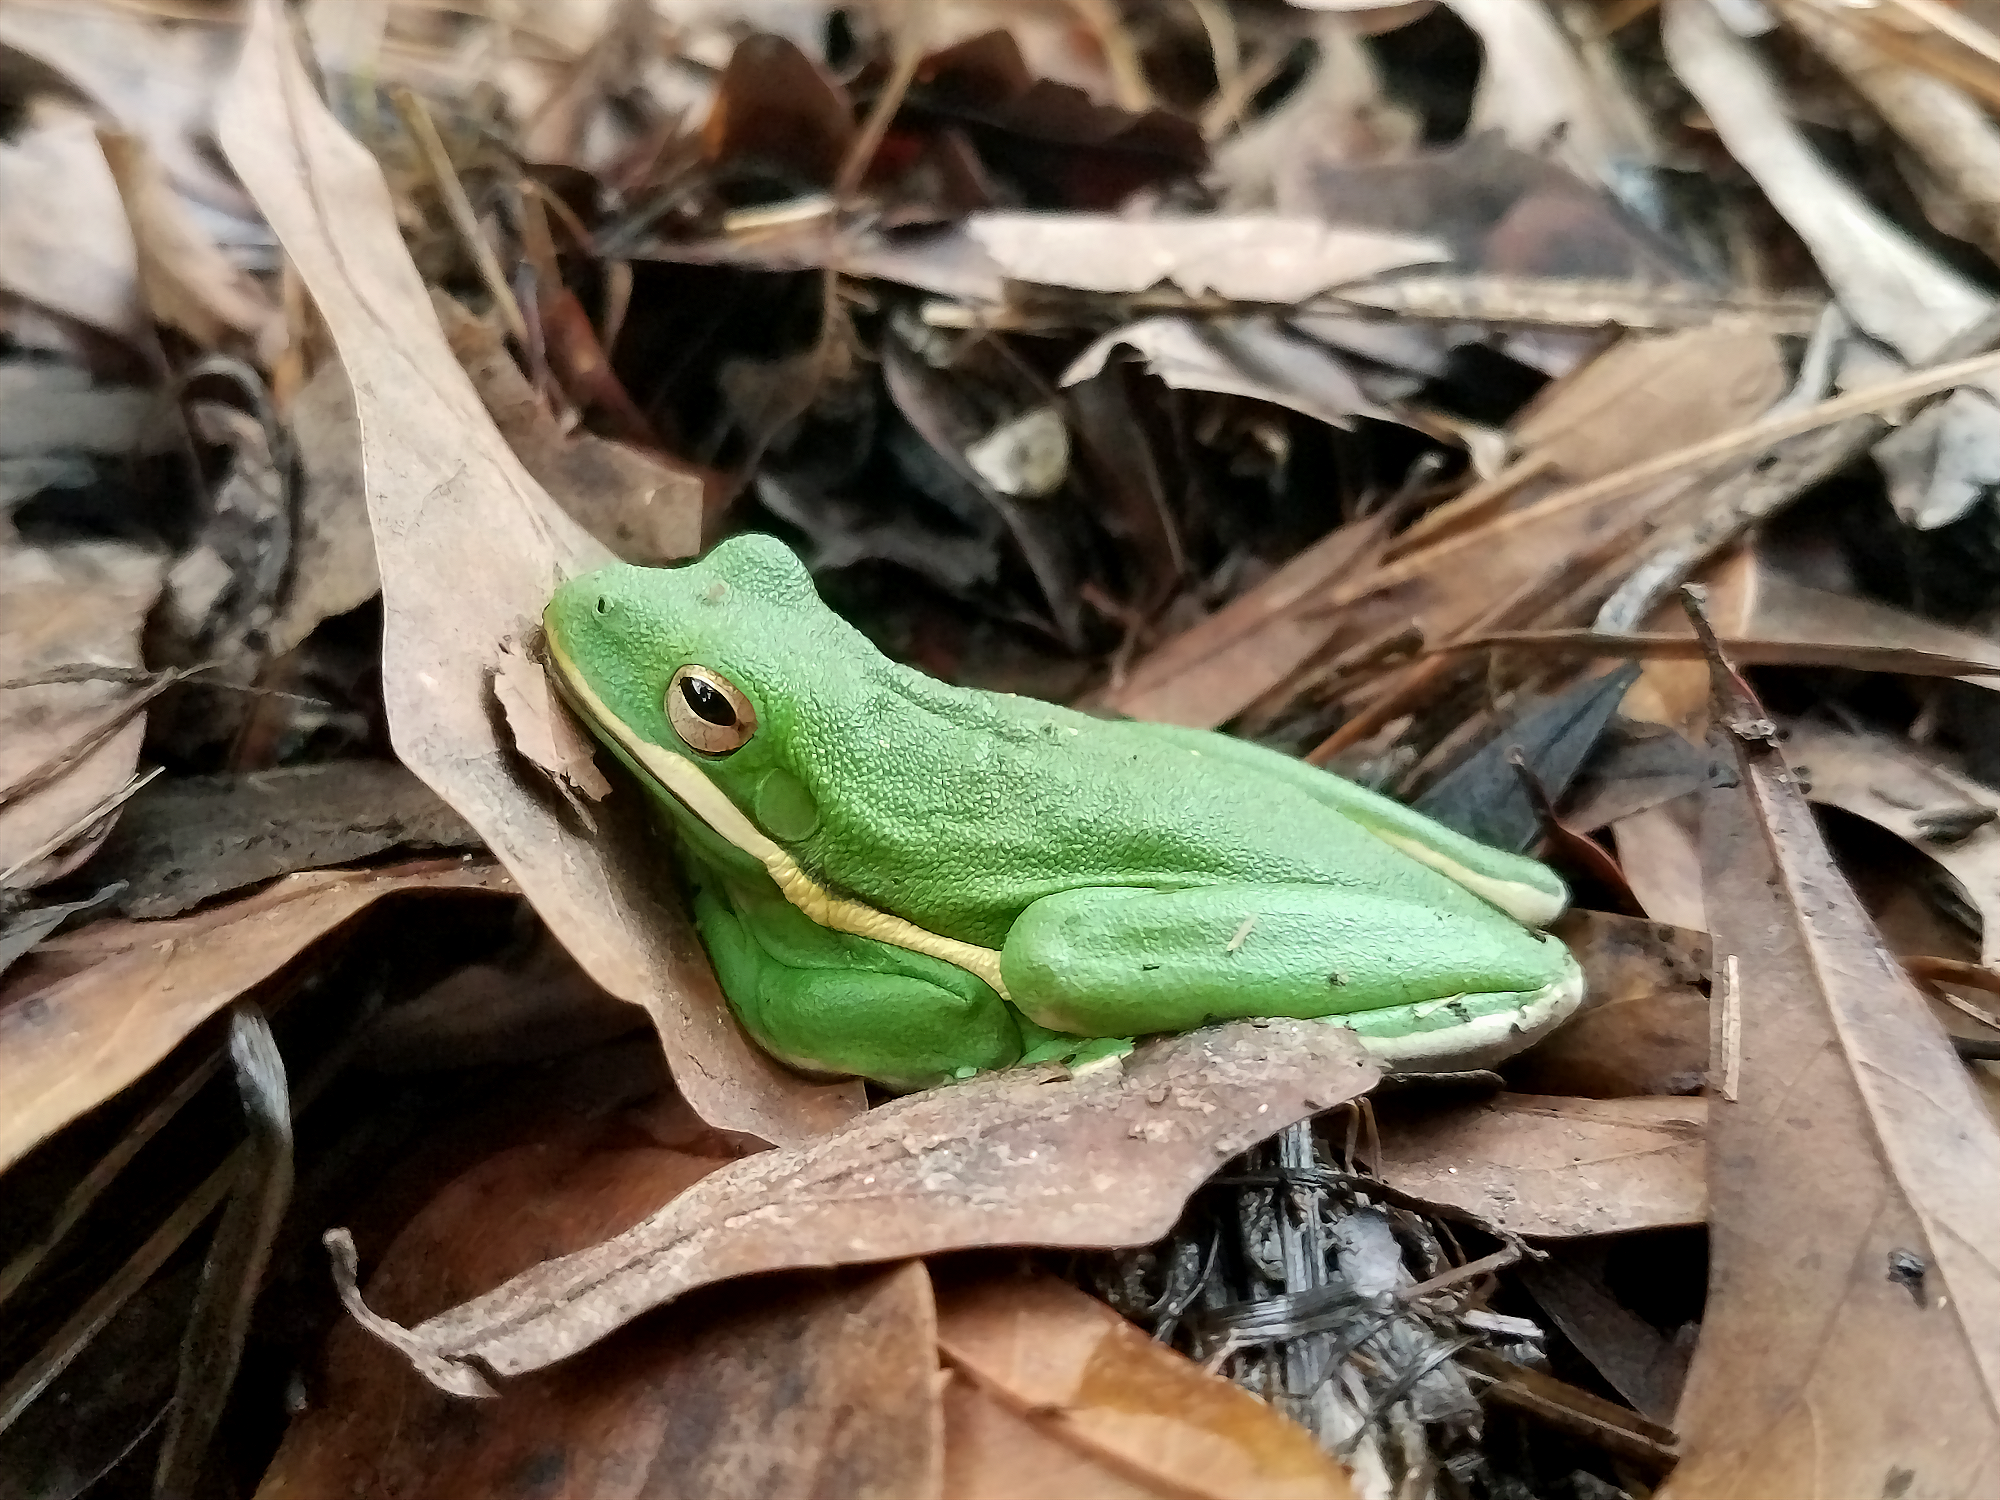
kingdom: Animalia
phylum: Chordata
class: Amphibia
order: Anura
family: Hylidae
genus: Dryophytes
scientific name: Dryophytes cinereus
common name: Green treefrog
